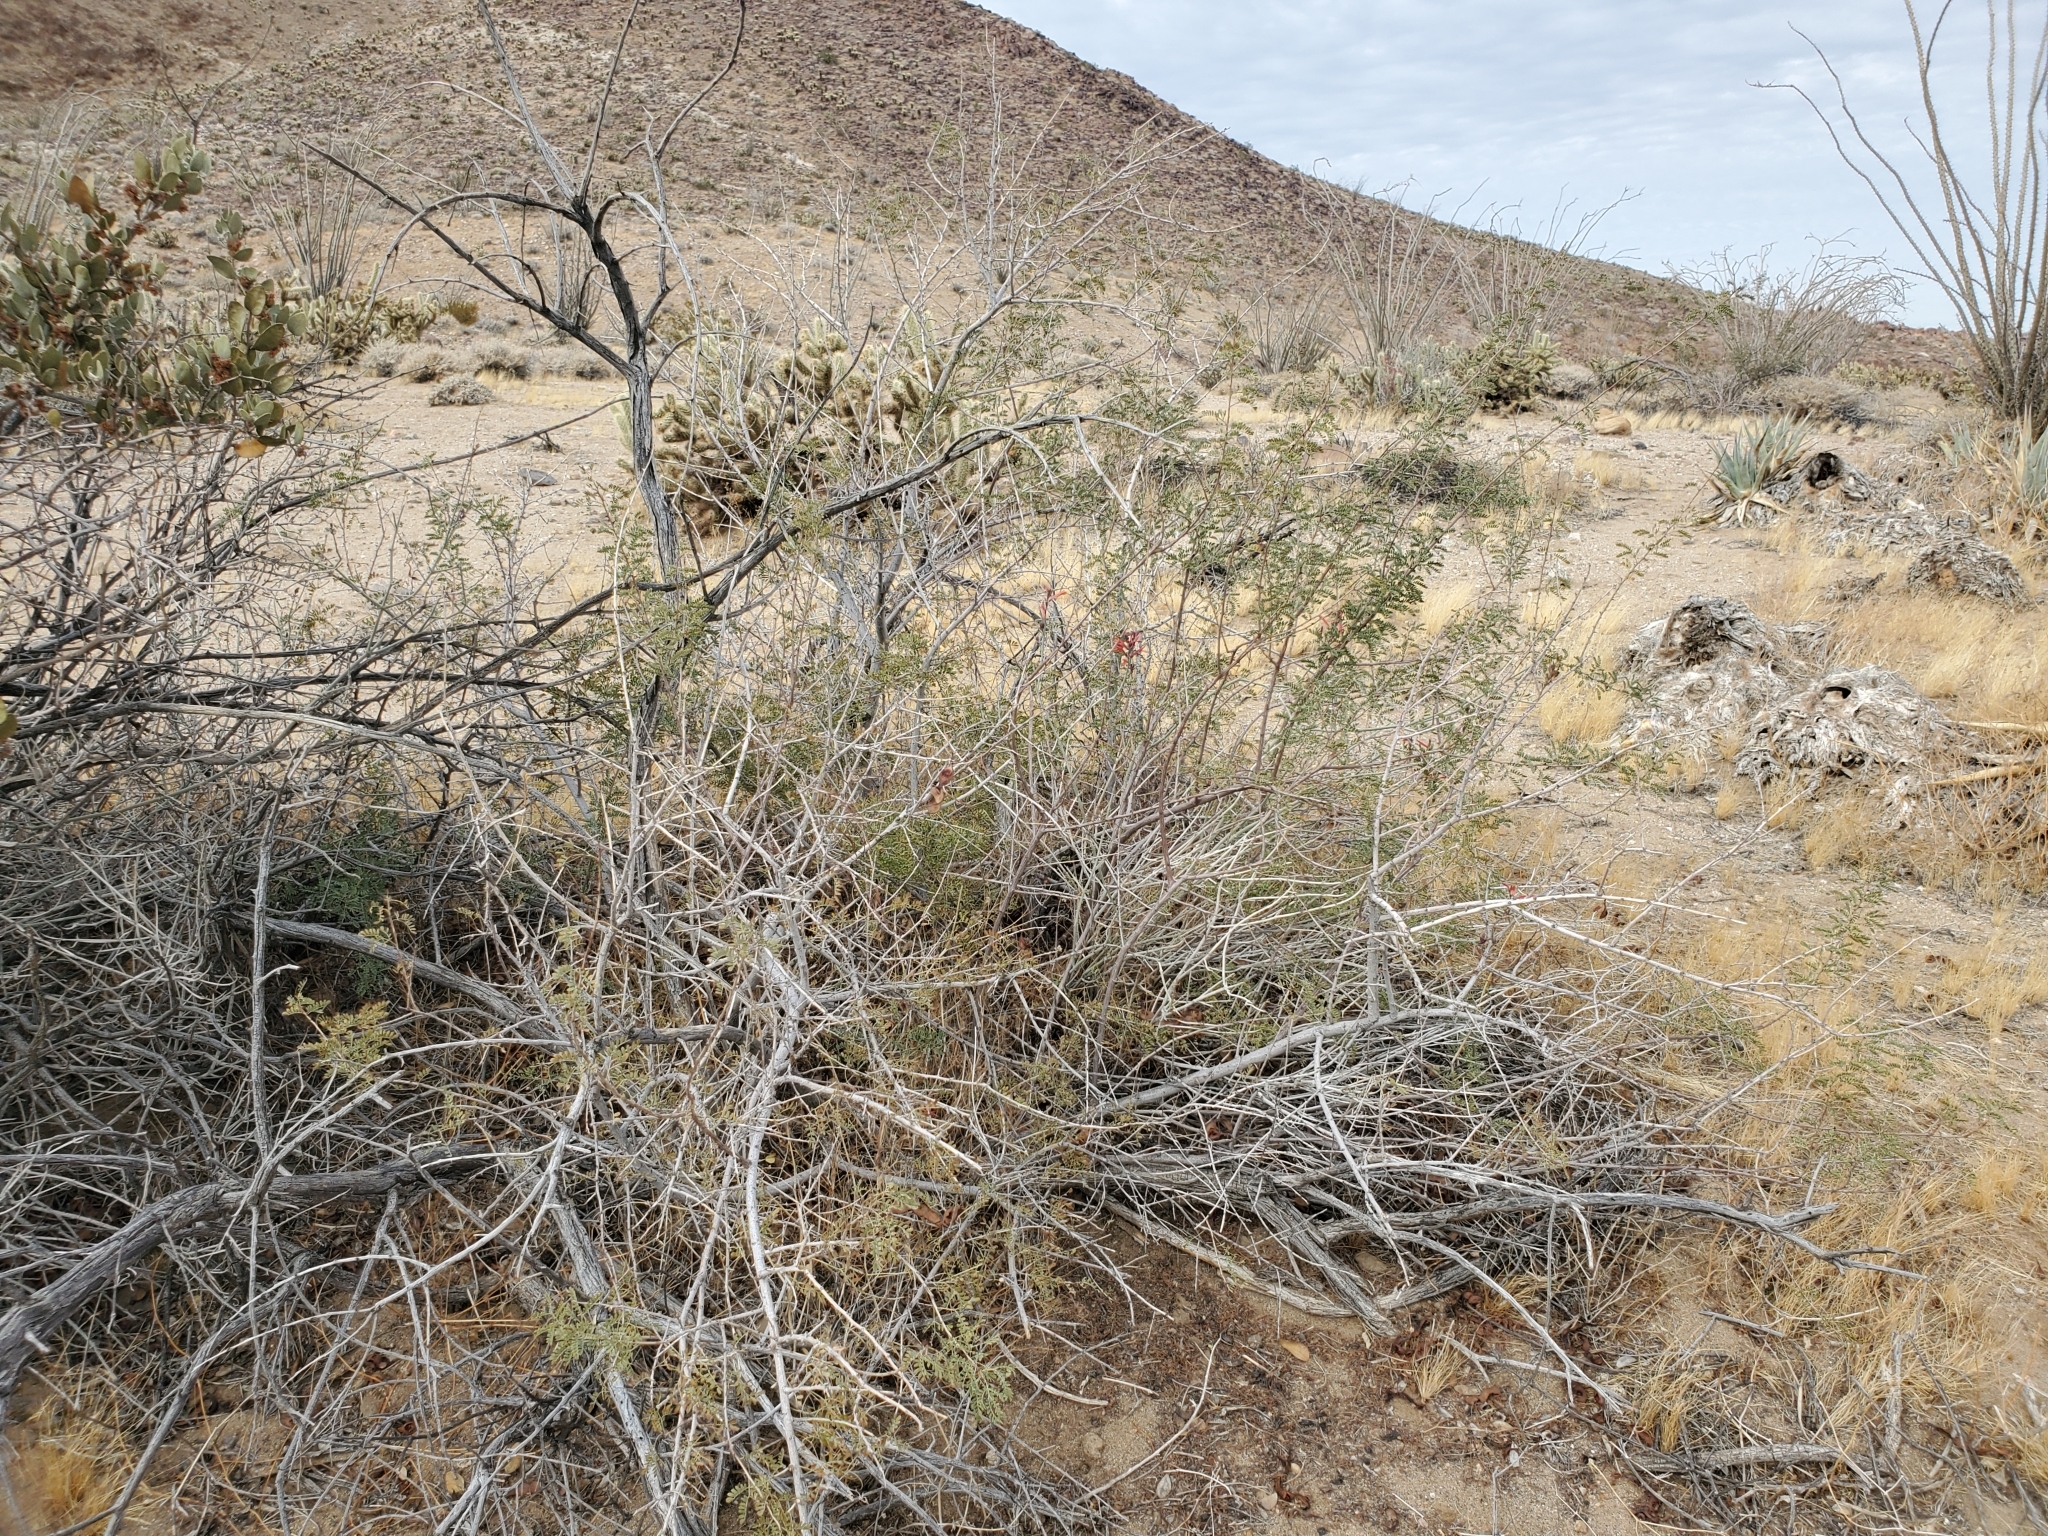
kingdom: Plantae
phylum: Tracheophyta
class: Magnoliopsida
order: Fabales
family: Fabaceae
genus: Senegalia
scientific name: Senegalia greggii
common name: Texas-mimosa
